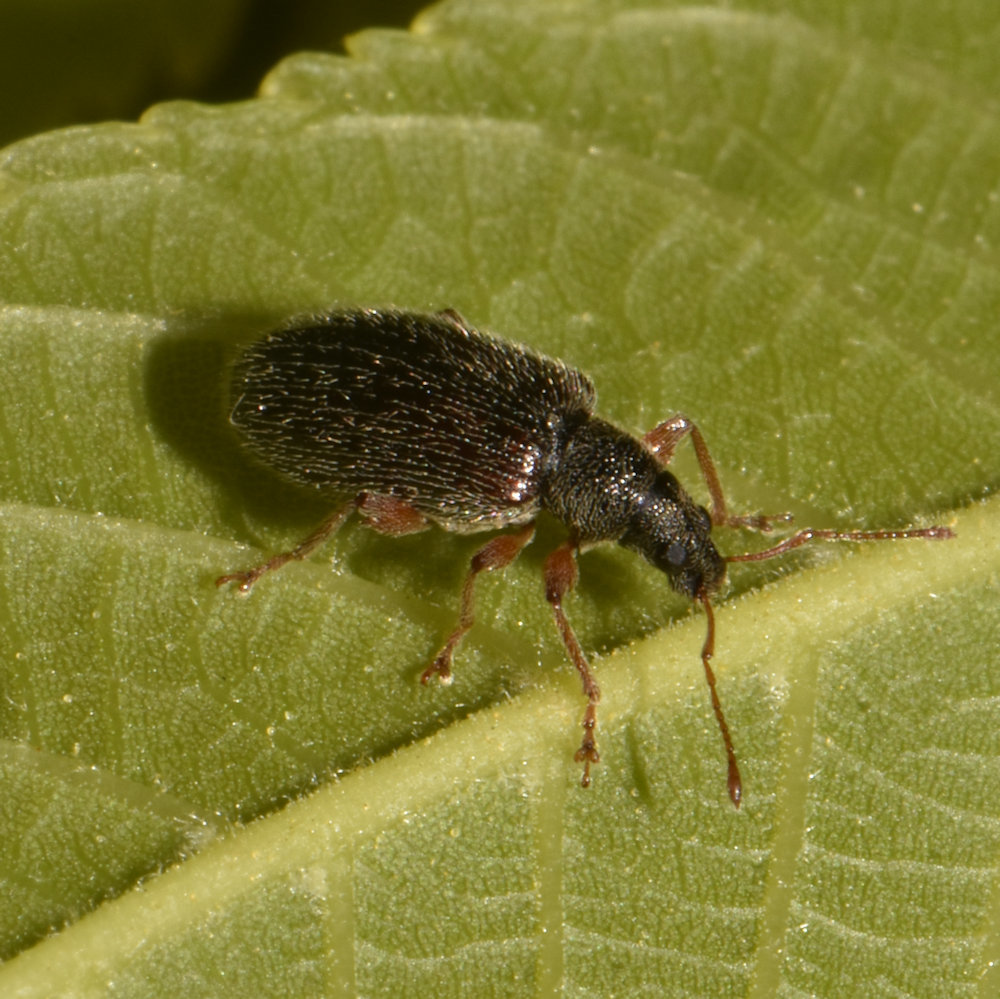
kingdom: Animalia
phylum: Arthropoda
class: Insecta
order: Coleoptera
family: Curculionidae
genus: Phyllobius
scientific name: Phyllobius oblongus
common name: Brown leaf weevil
